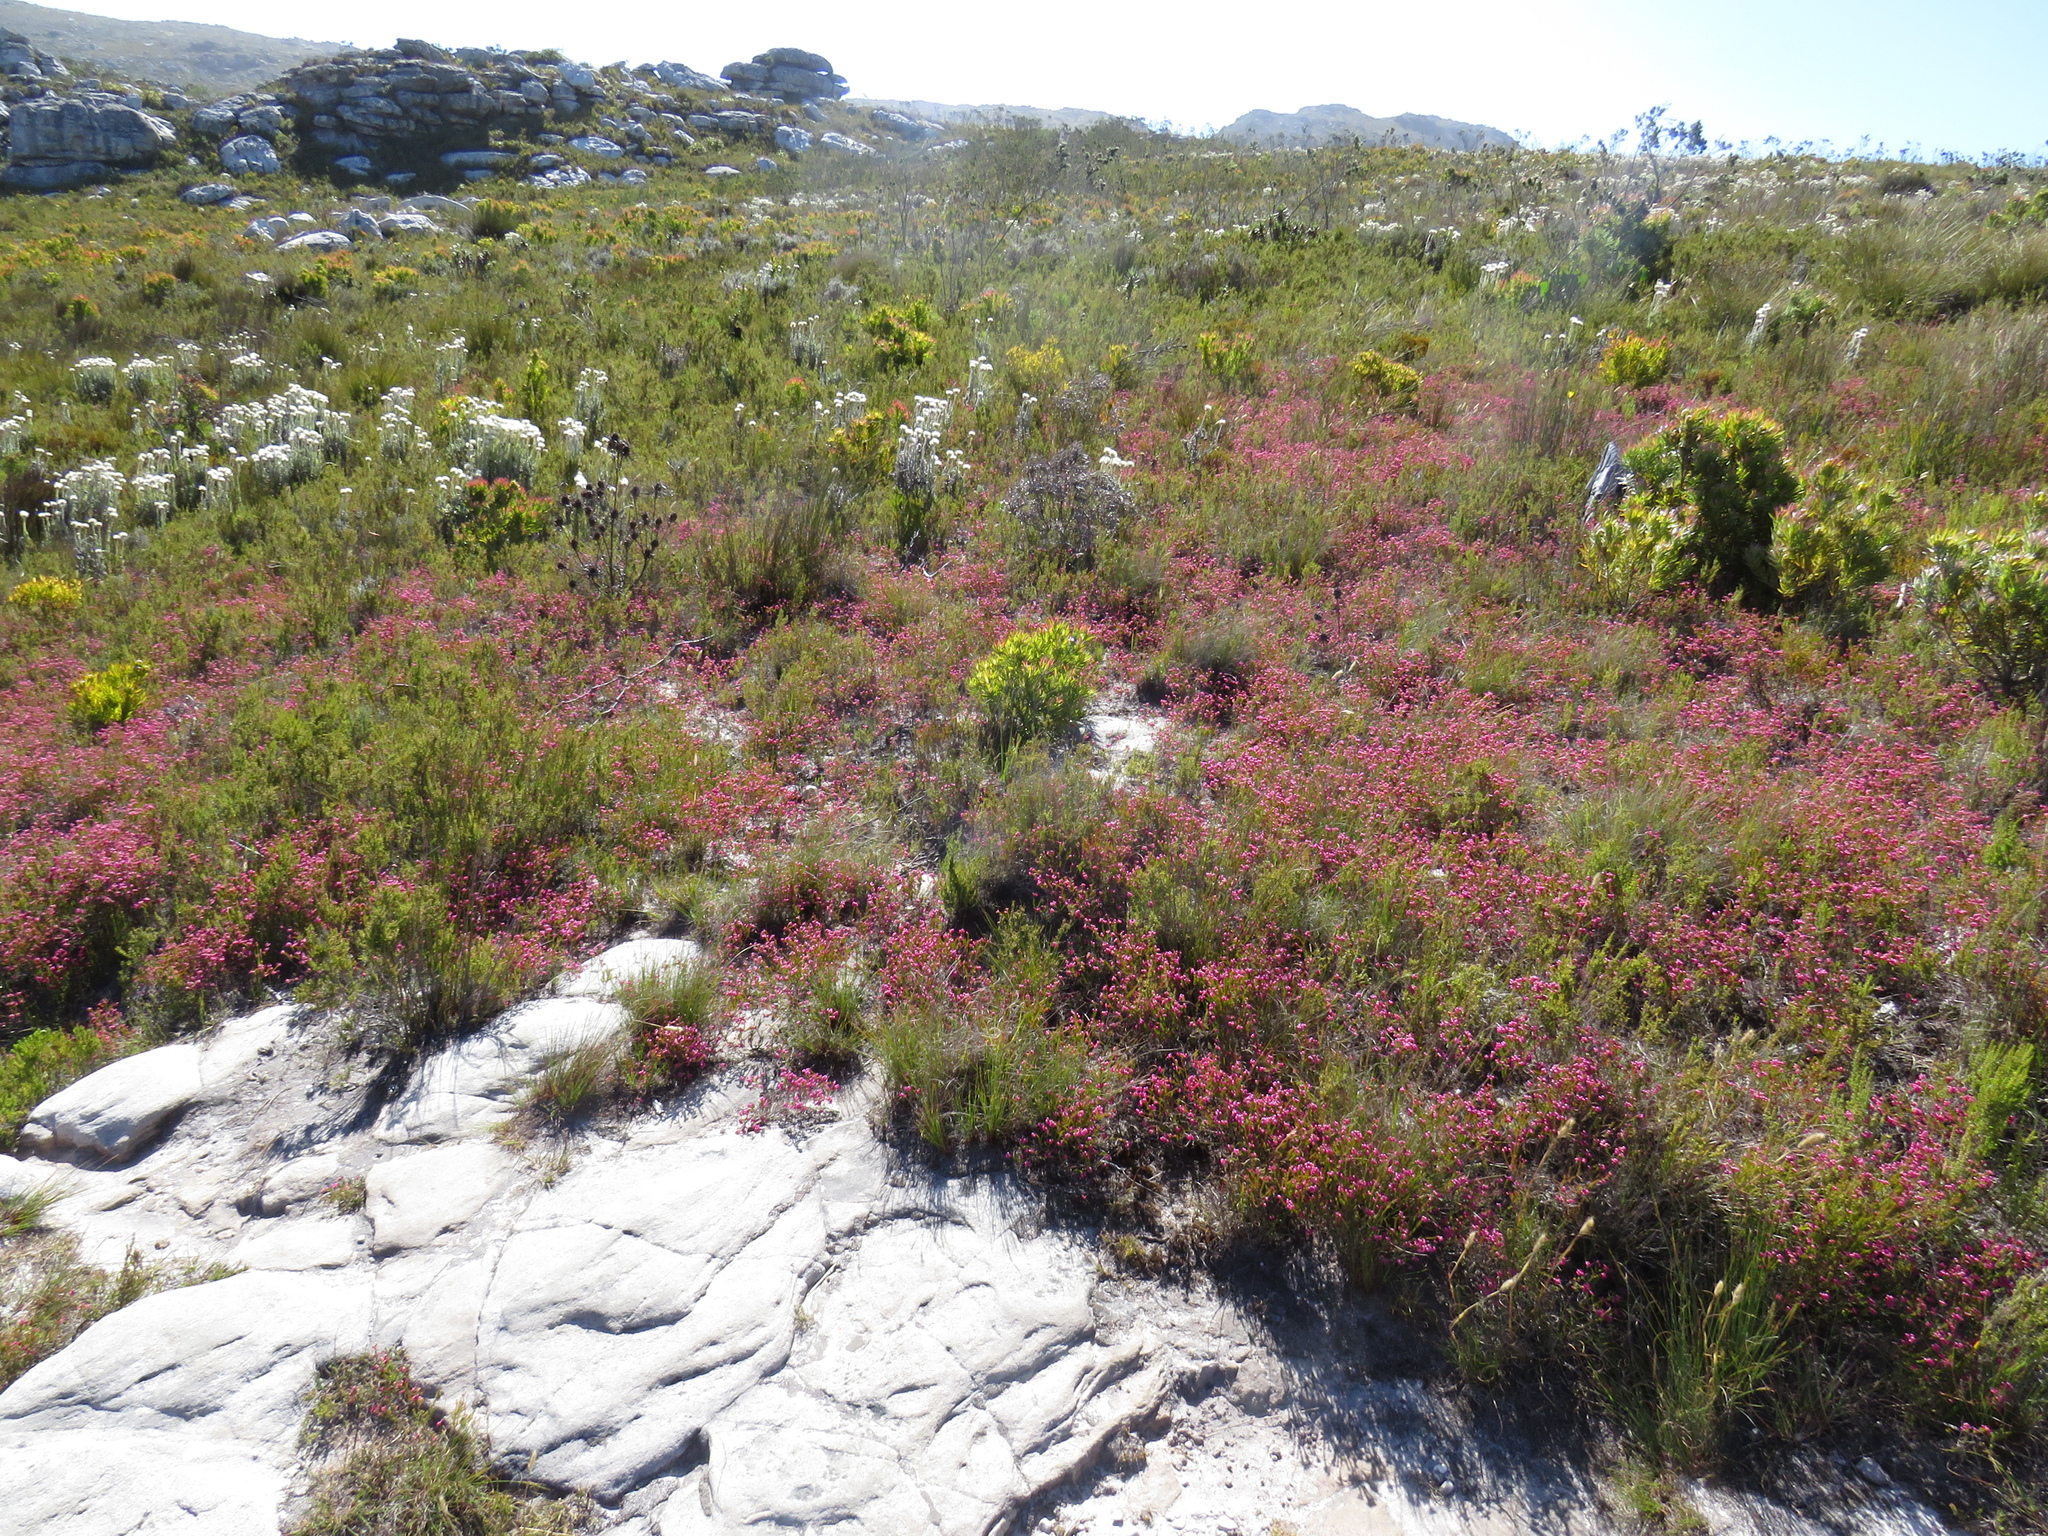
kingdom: Plantae
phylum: Tracheophyta
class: Magnoliopsida
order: Ericales
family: Ericaceae
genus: Erica
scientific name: Erica multumbellifera
